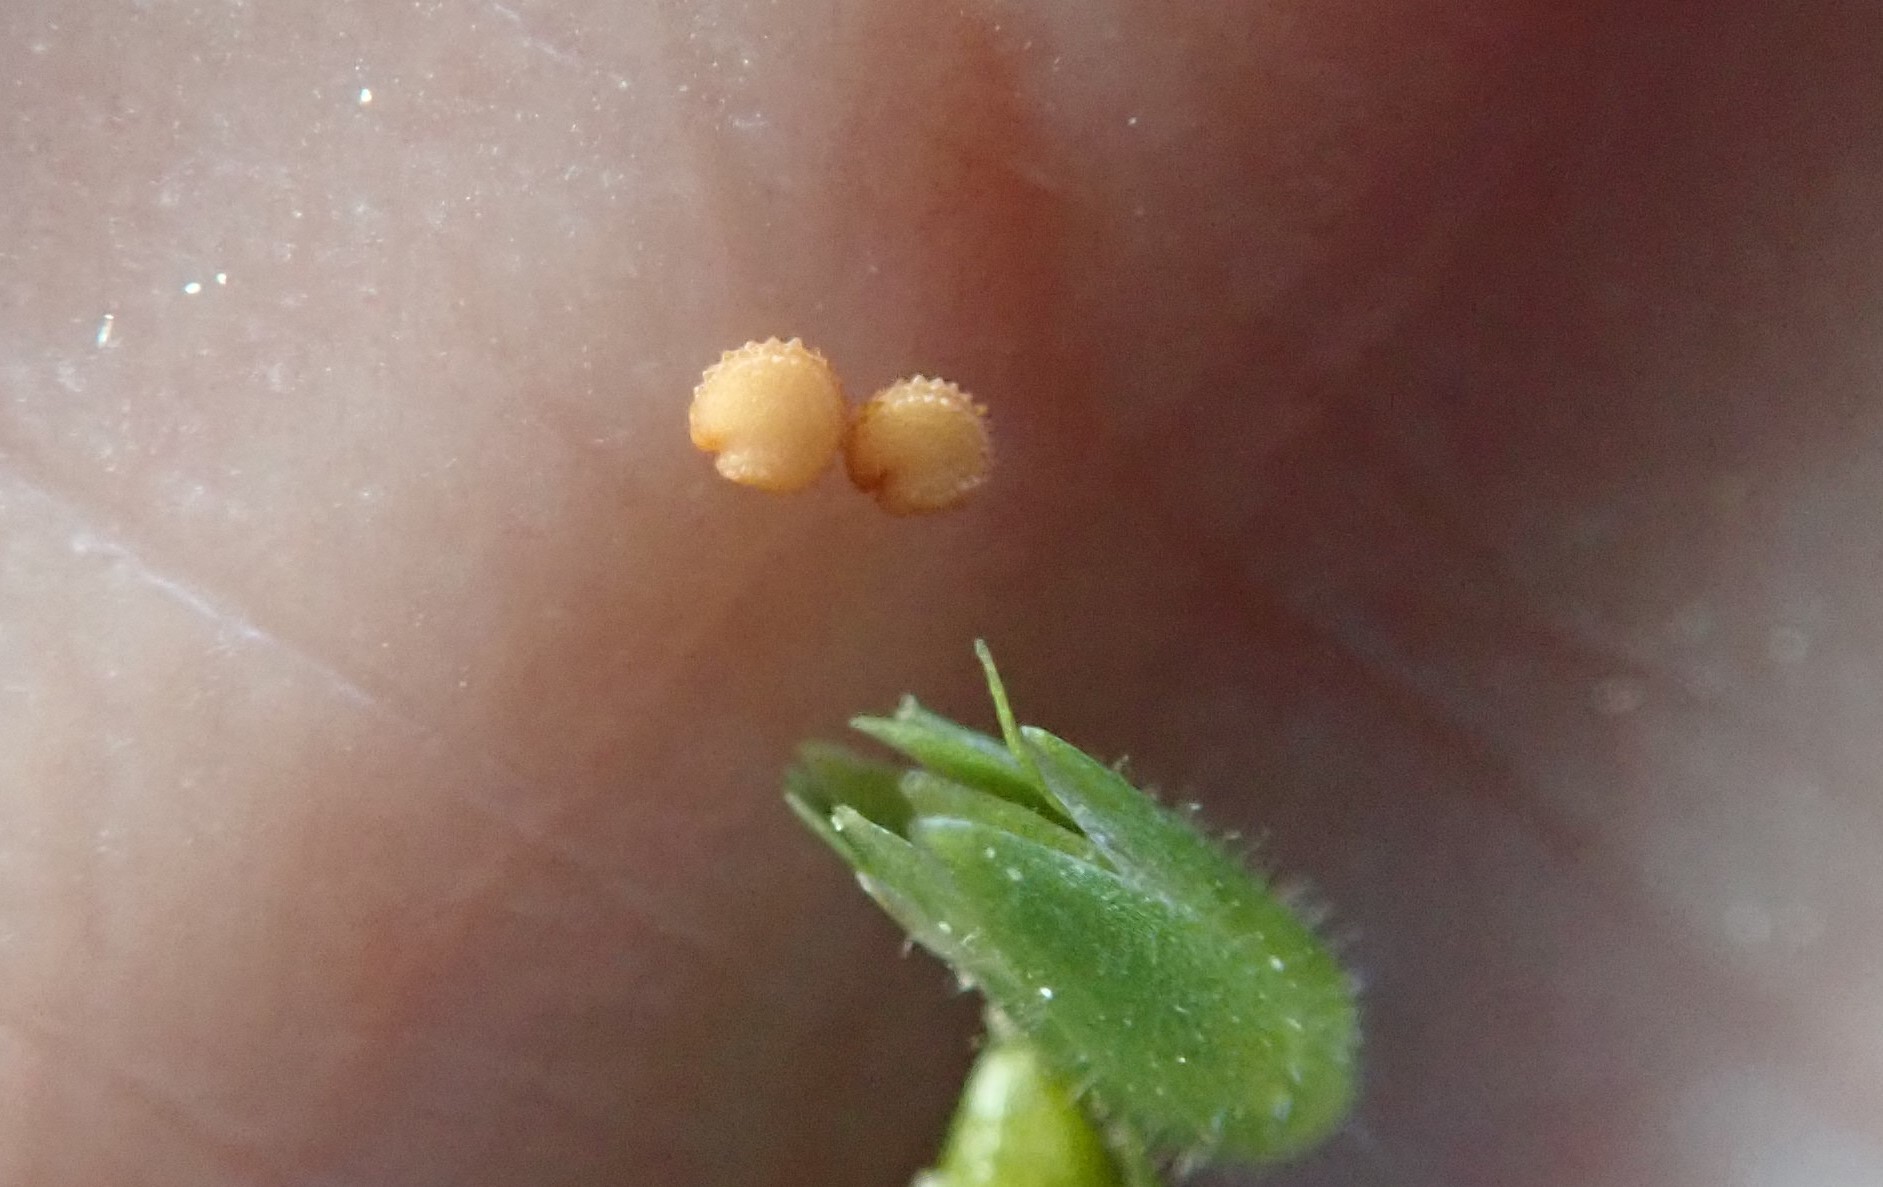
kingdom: Plantae
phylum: Tracheophyta
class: Magnoliopsida
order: Caryophyllales
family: Caryophyllaceae
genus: Stellaria
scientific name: Stellaria apetala
